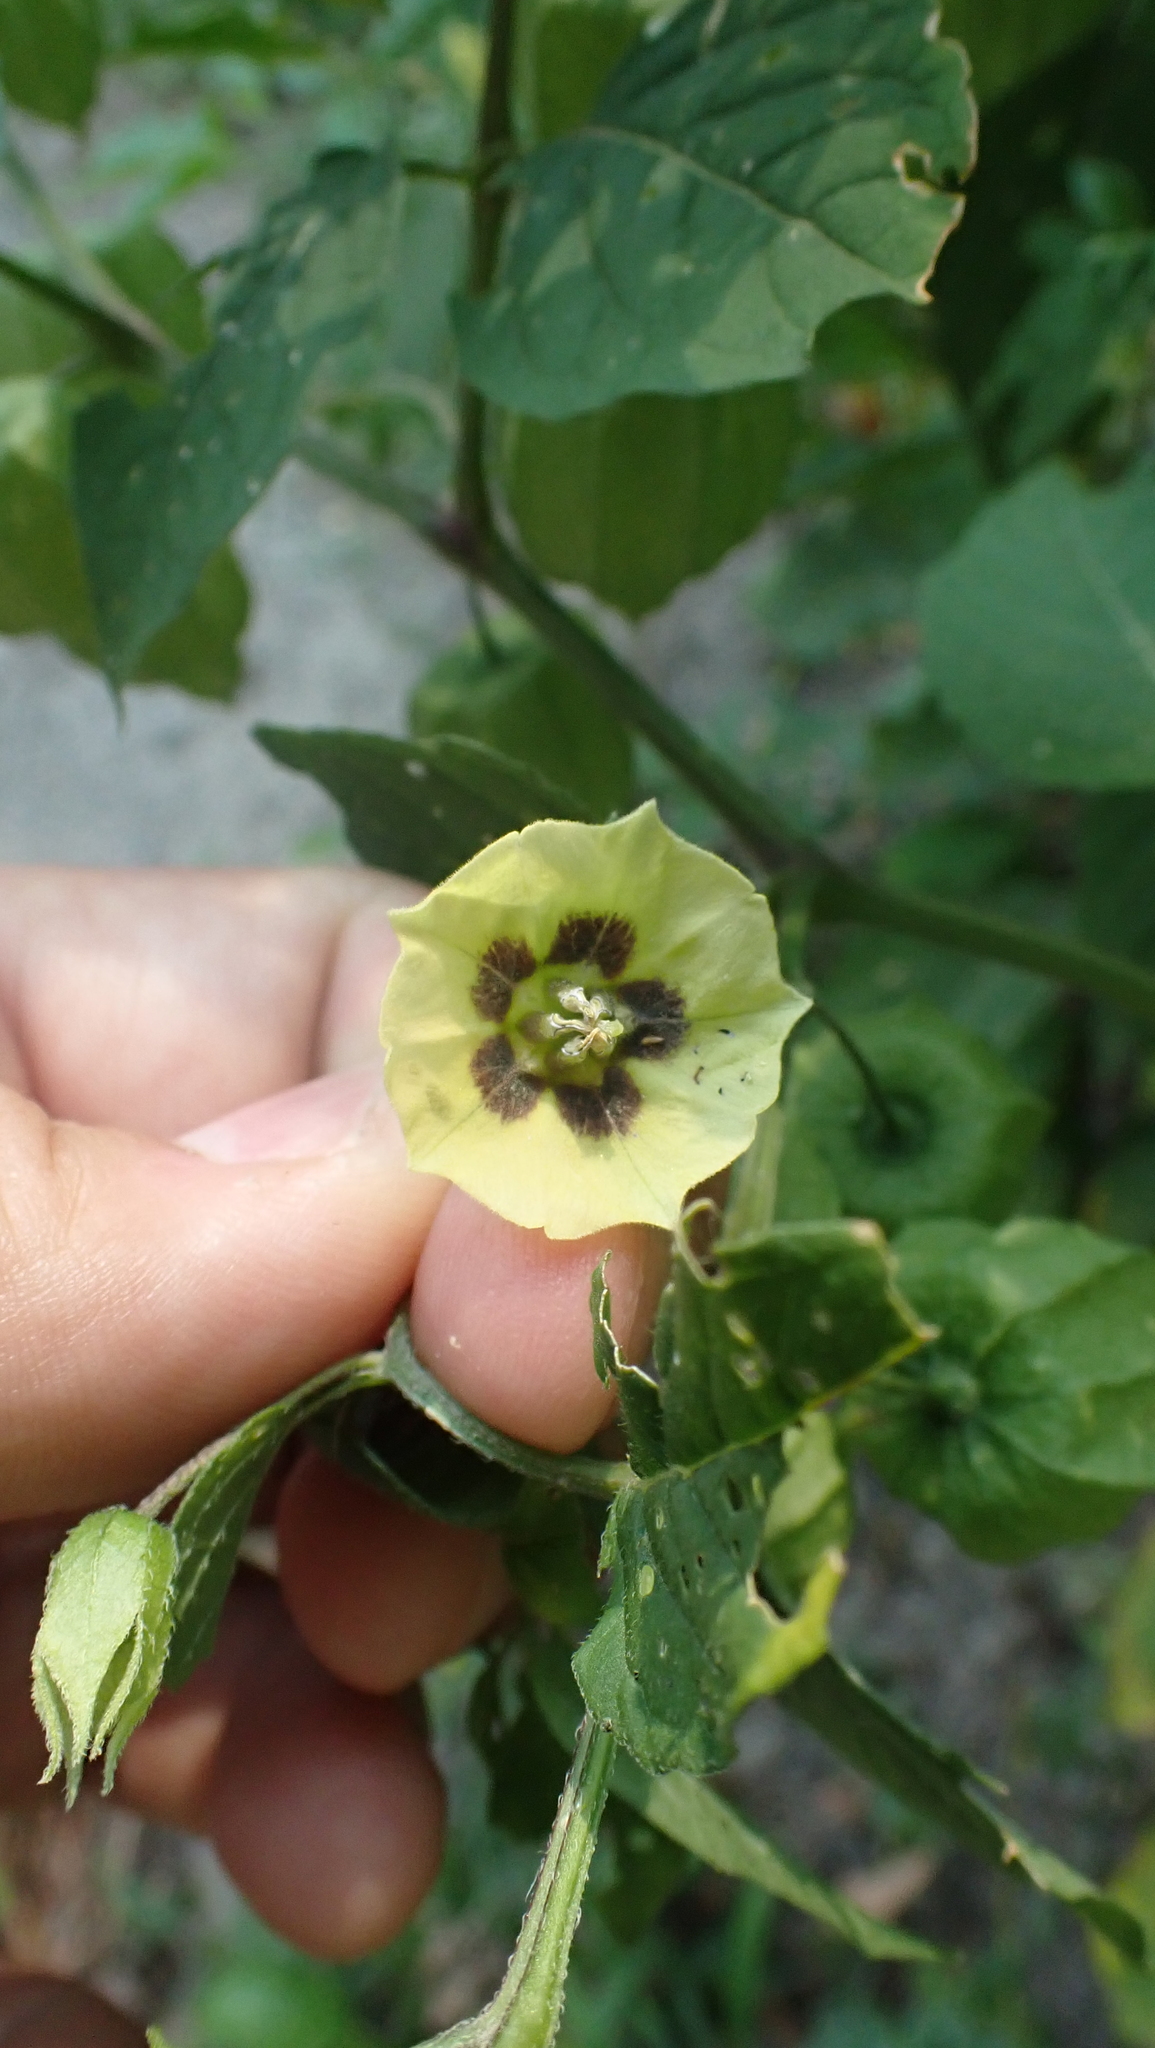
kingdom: Plantae
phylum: Tracheophyta
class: Magnoliopsida
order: Solanales
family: Solanaceae
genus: Physalis
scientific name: Physalis longifolia
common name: Common ground-cherry
